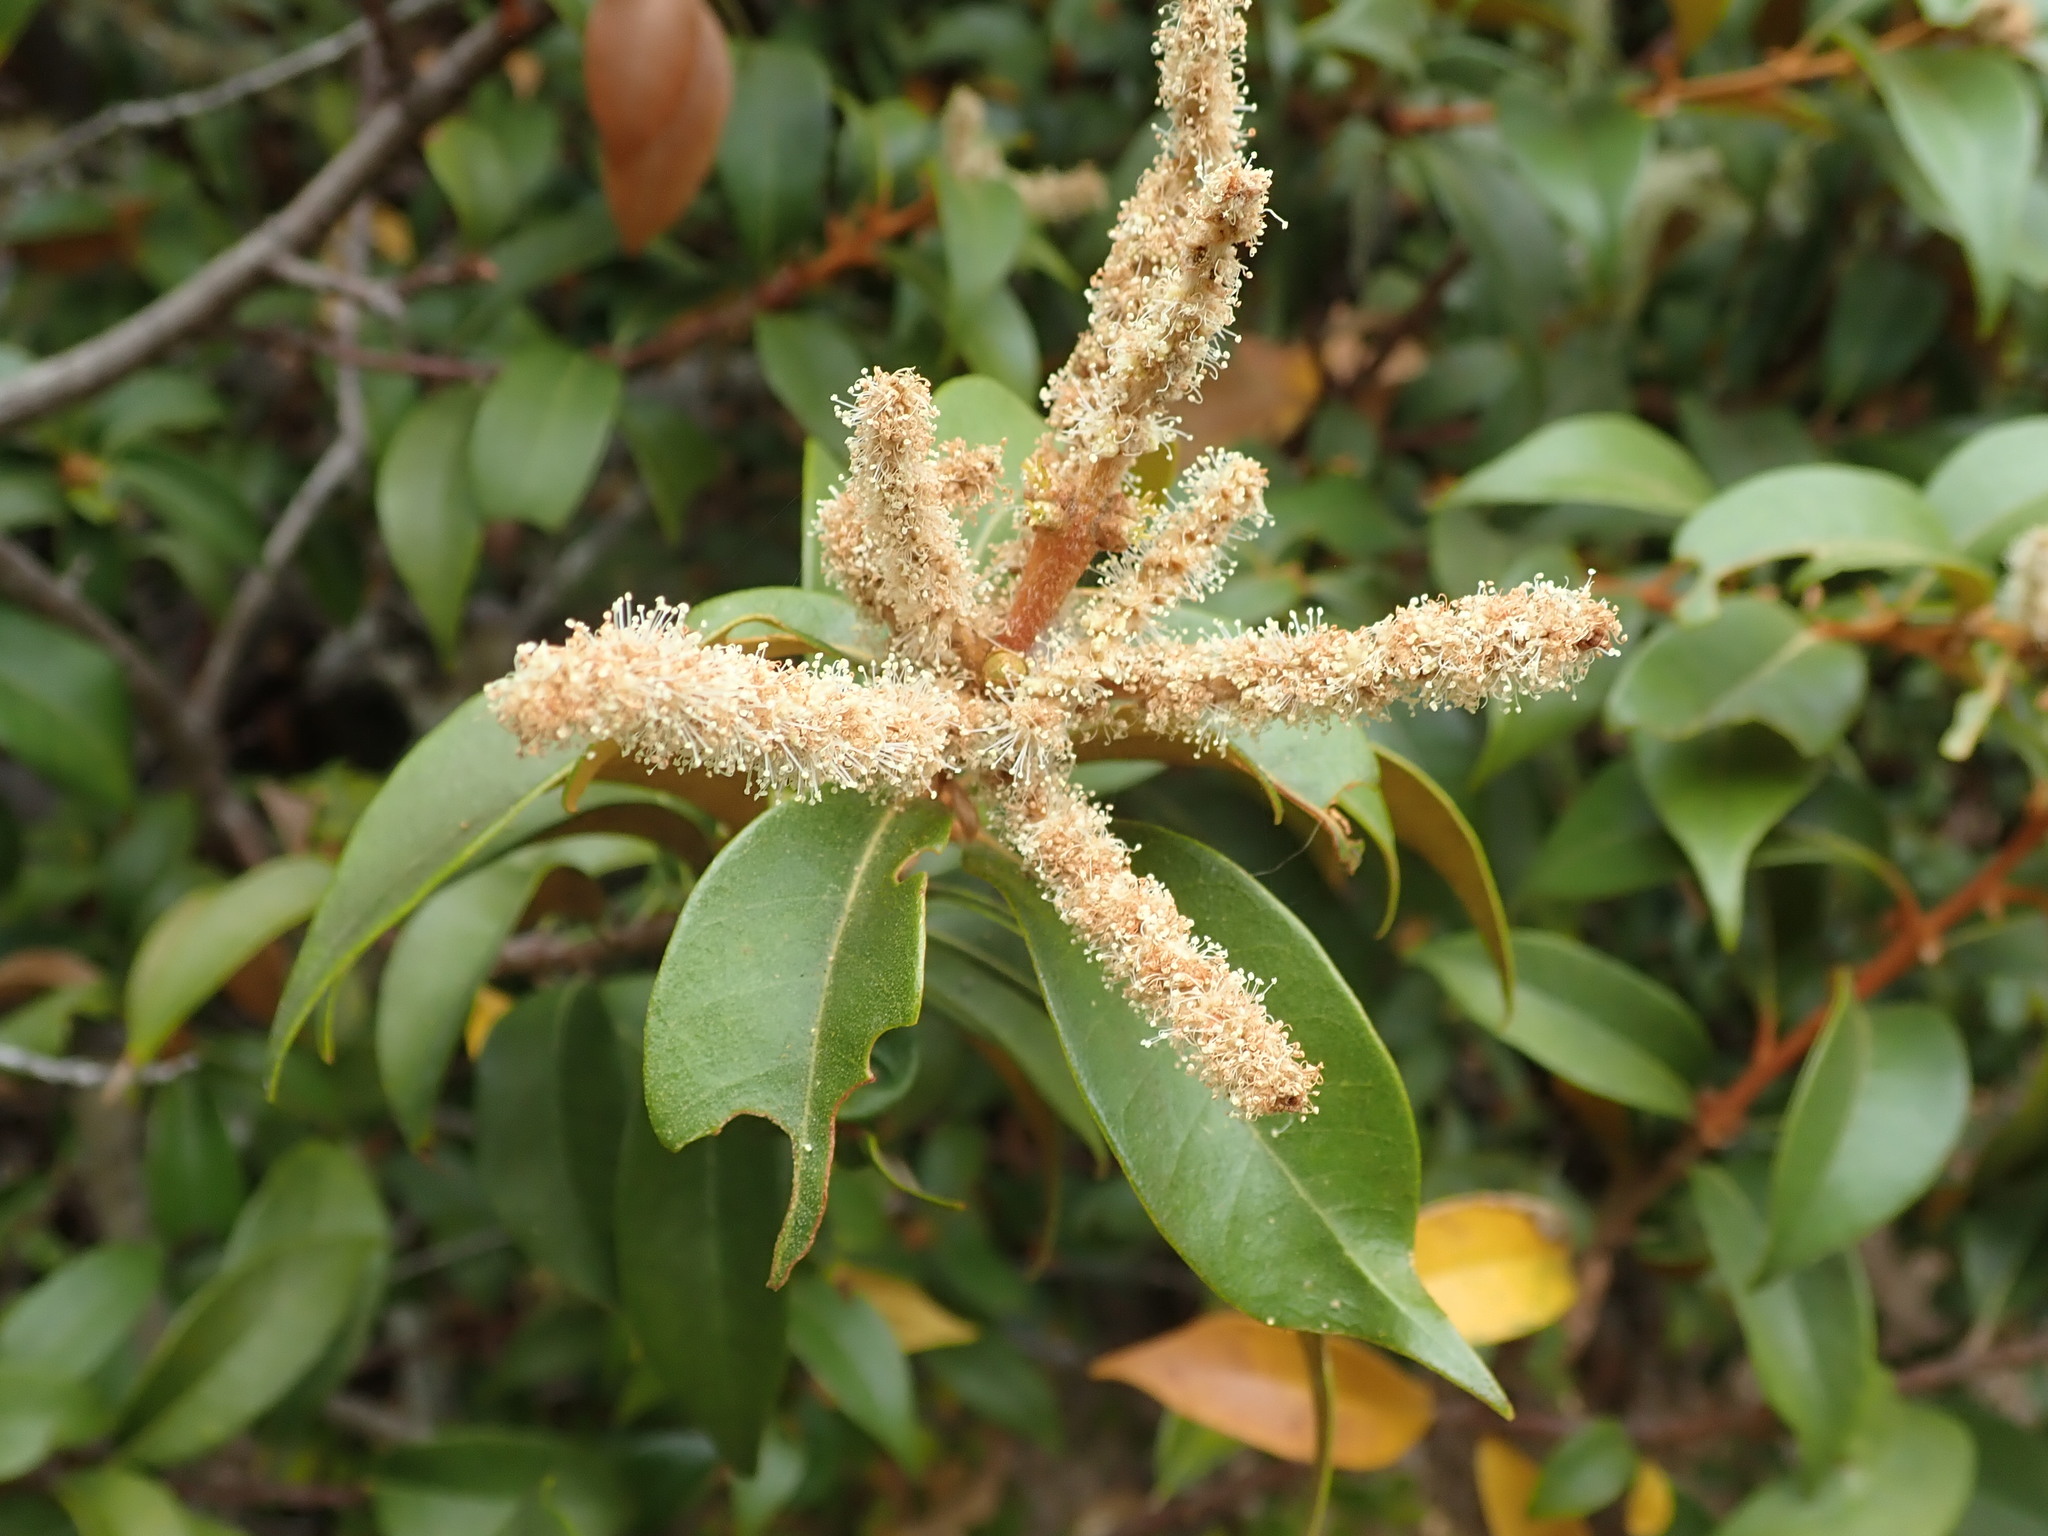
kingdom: Plantae
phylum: Tracheophyta
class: Magnoliopsida
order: Fagales
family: Fagaceae
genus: Chrysolepis
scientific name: Chrysolepis chrysophylla
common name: Giant chinquapin
